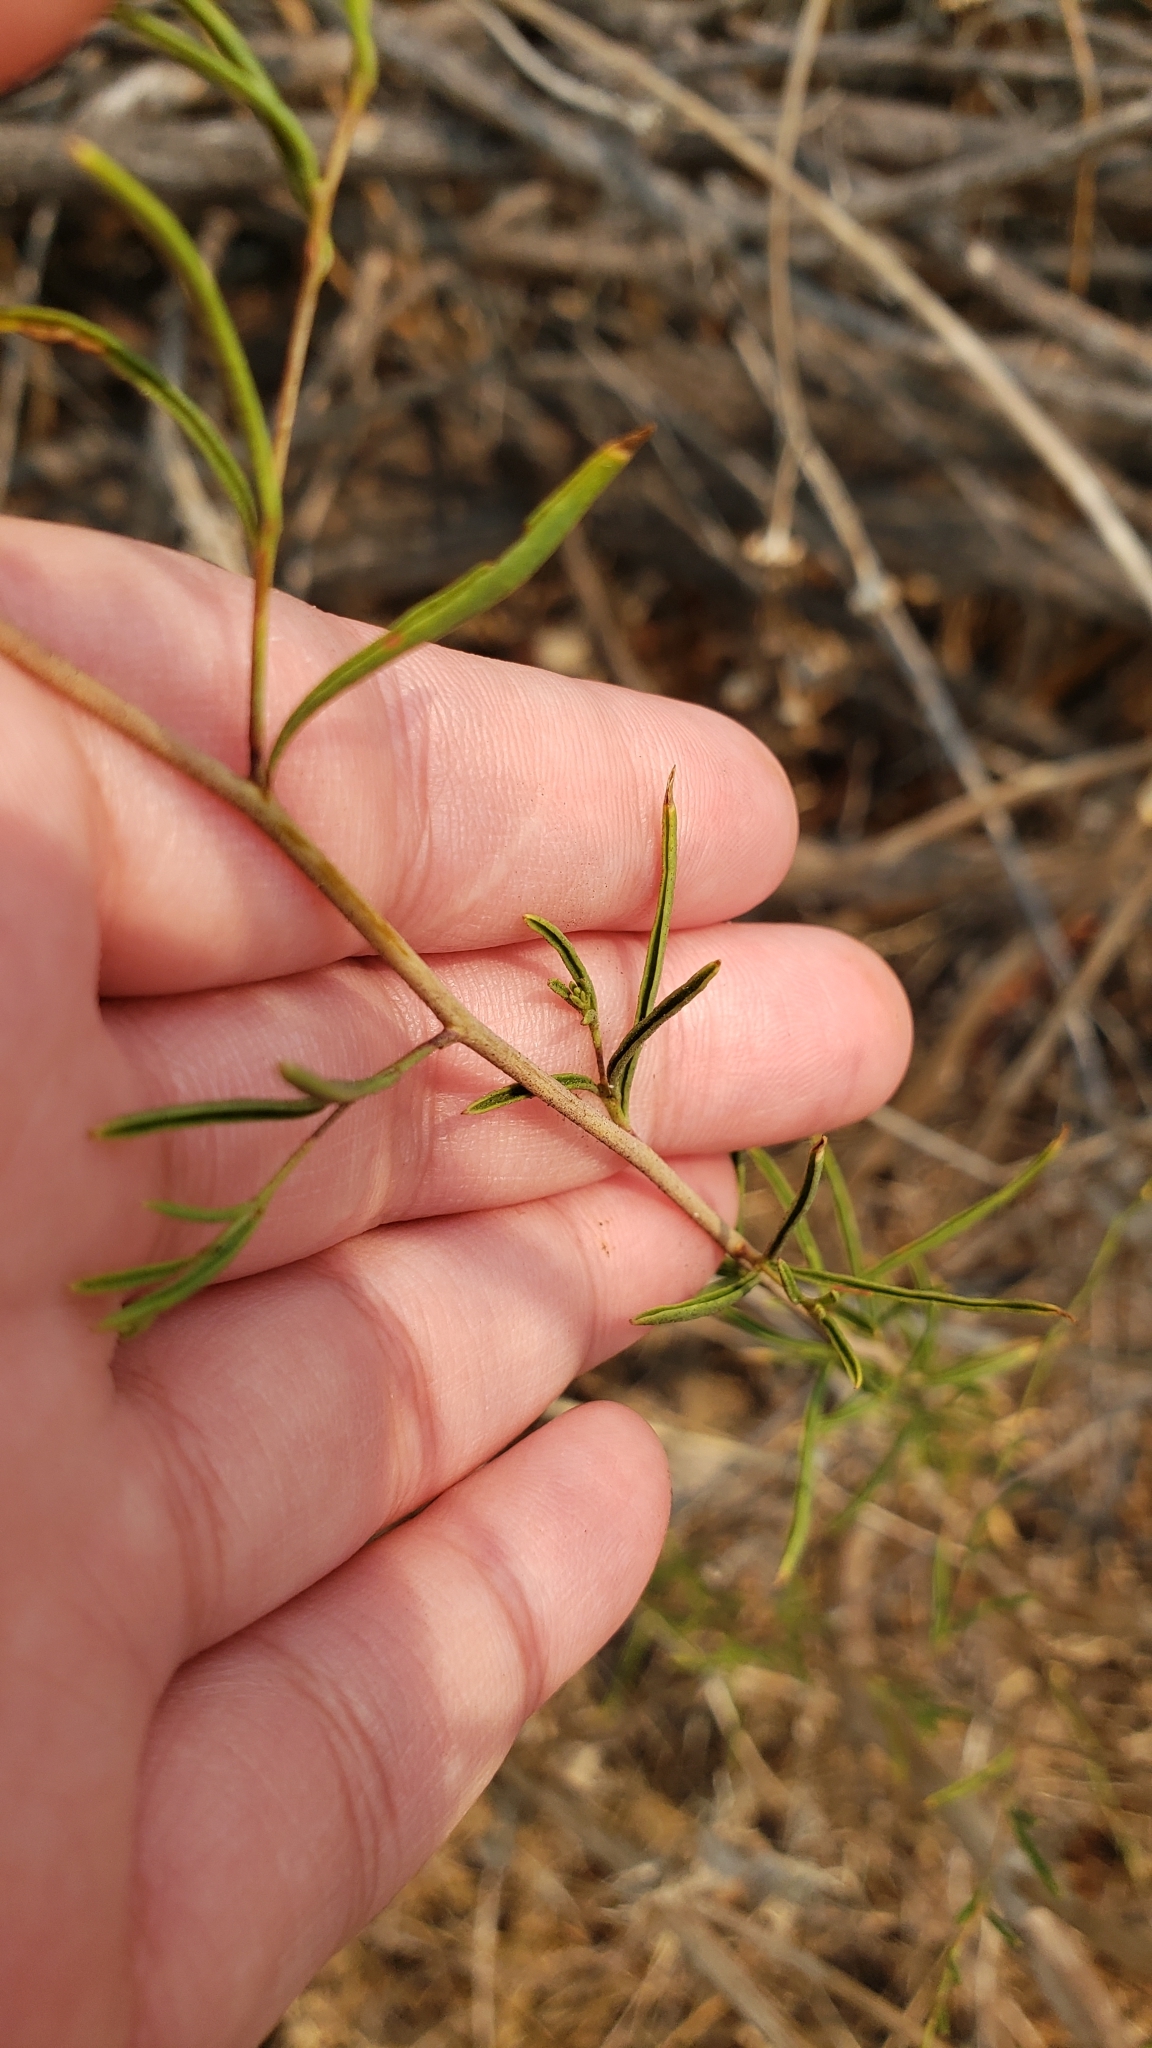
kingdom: Plantae
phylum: Tracheophyta
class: Magnoliopsida
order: Myrtales
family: Onagraceae
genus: Epilobium
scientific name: Epilobium brachycarpum
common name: Annual willowherb
